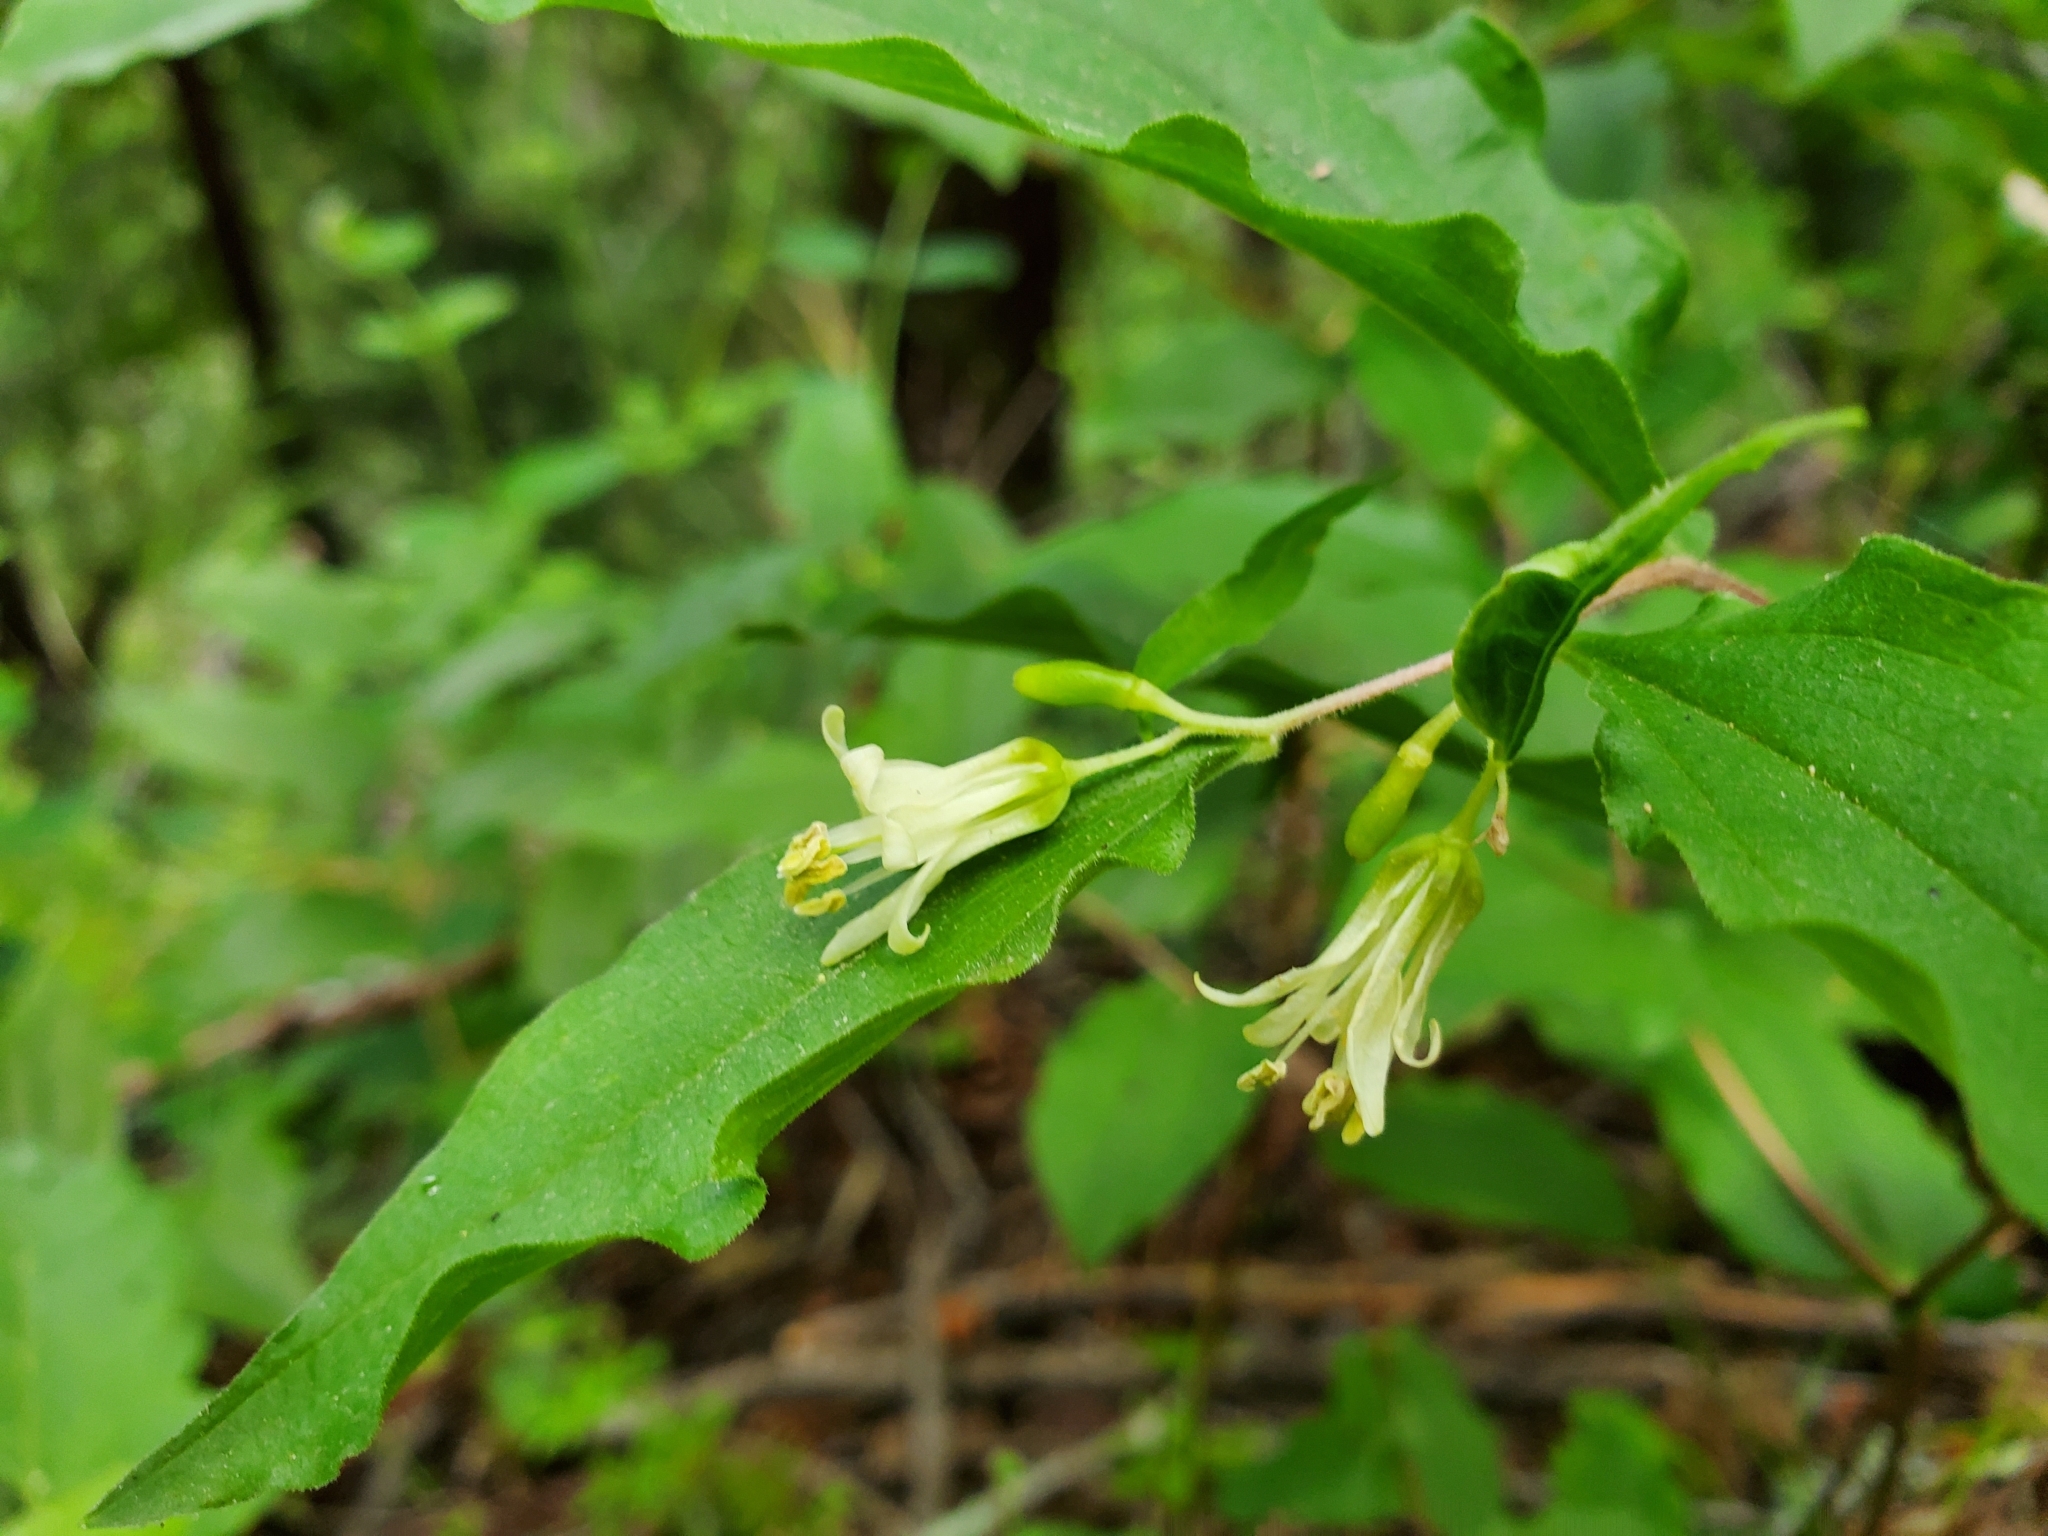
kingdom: Plantae
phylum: Tracheophyta
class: Liliopsida
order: Liliales
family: Liliaceae
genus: Prosartes
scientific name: Prosartes hookeri
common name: Fairy-bells
